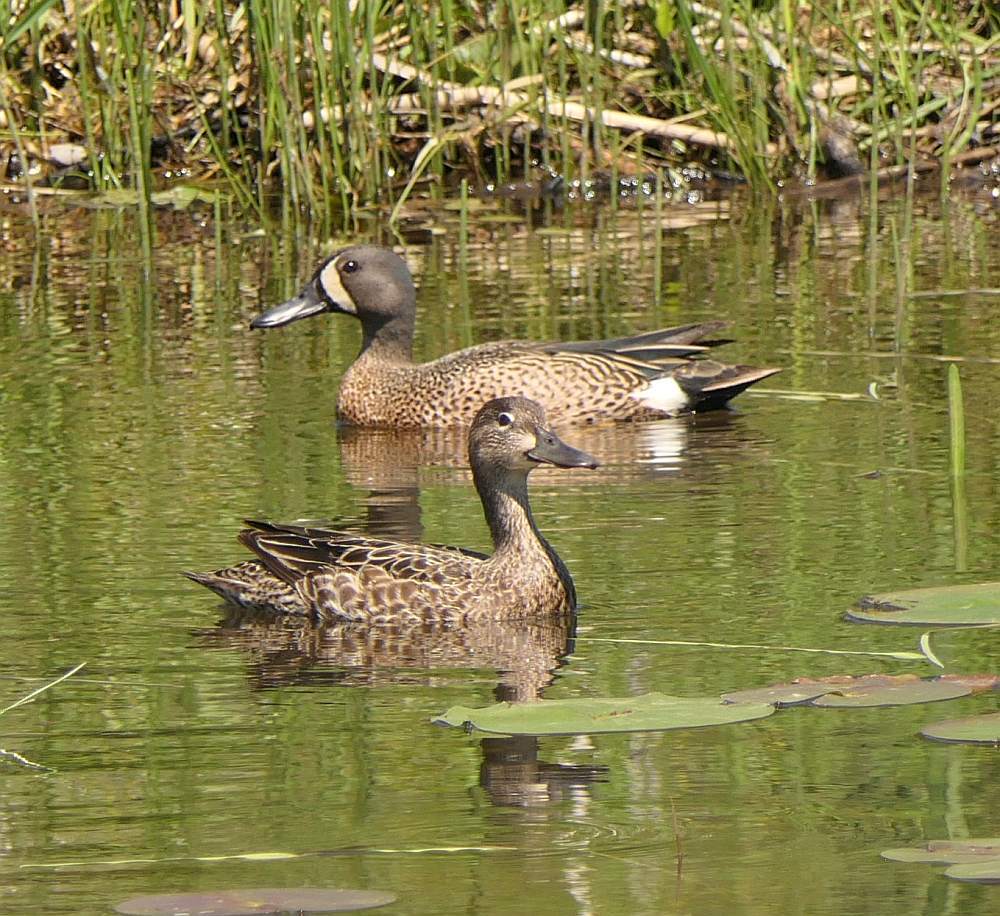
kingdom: Animalia
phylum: Chordata
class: Aves
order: Anseriformes
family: Anatidae
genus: Spatula
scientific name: Spatula discors
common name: Blue-winged teal
